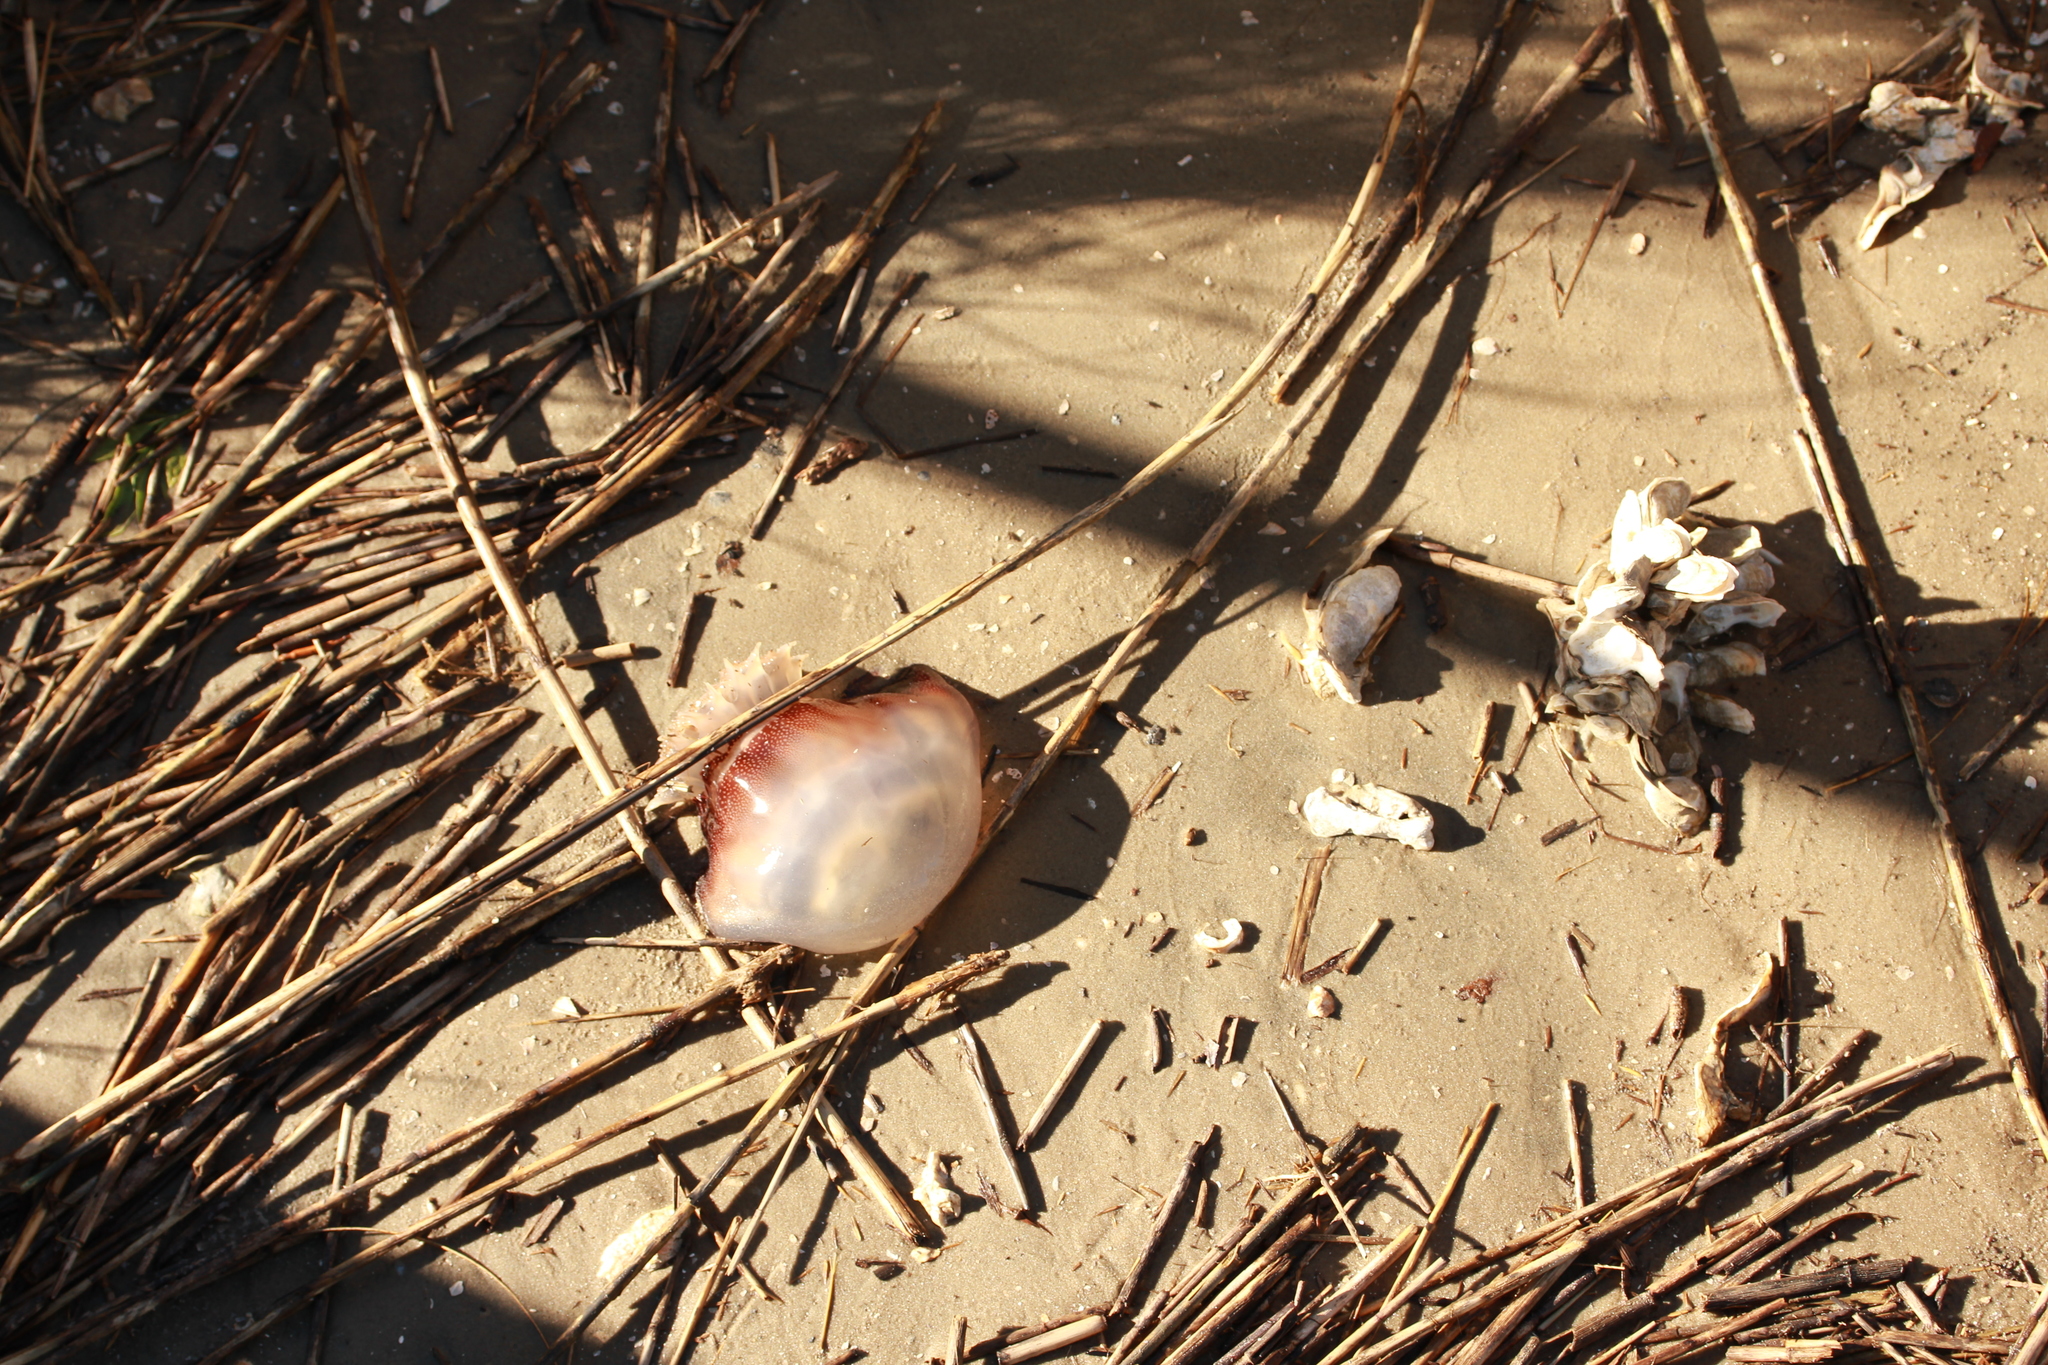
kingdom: Animalia
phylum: Cnidaria
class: Scyphozoa
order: Rhizostomeae
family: Stomolophidae
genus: Stomolophus
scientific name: Stomolophus meleagris
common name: Cabbagehead
